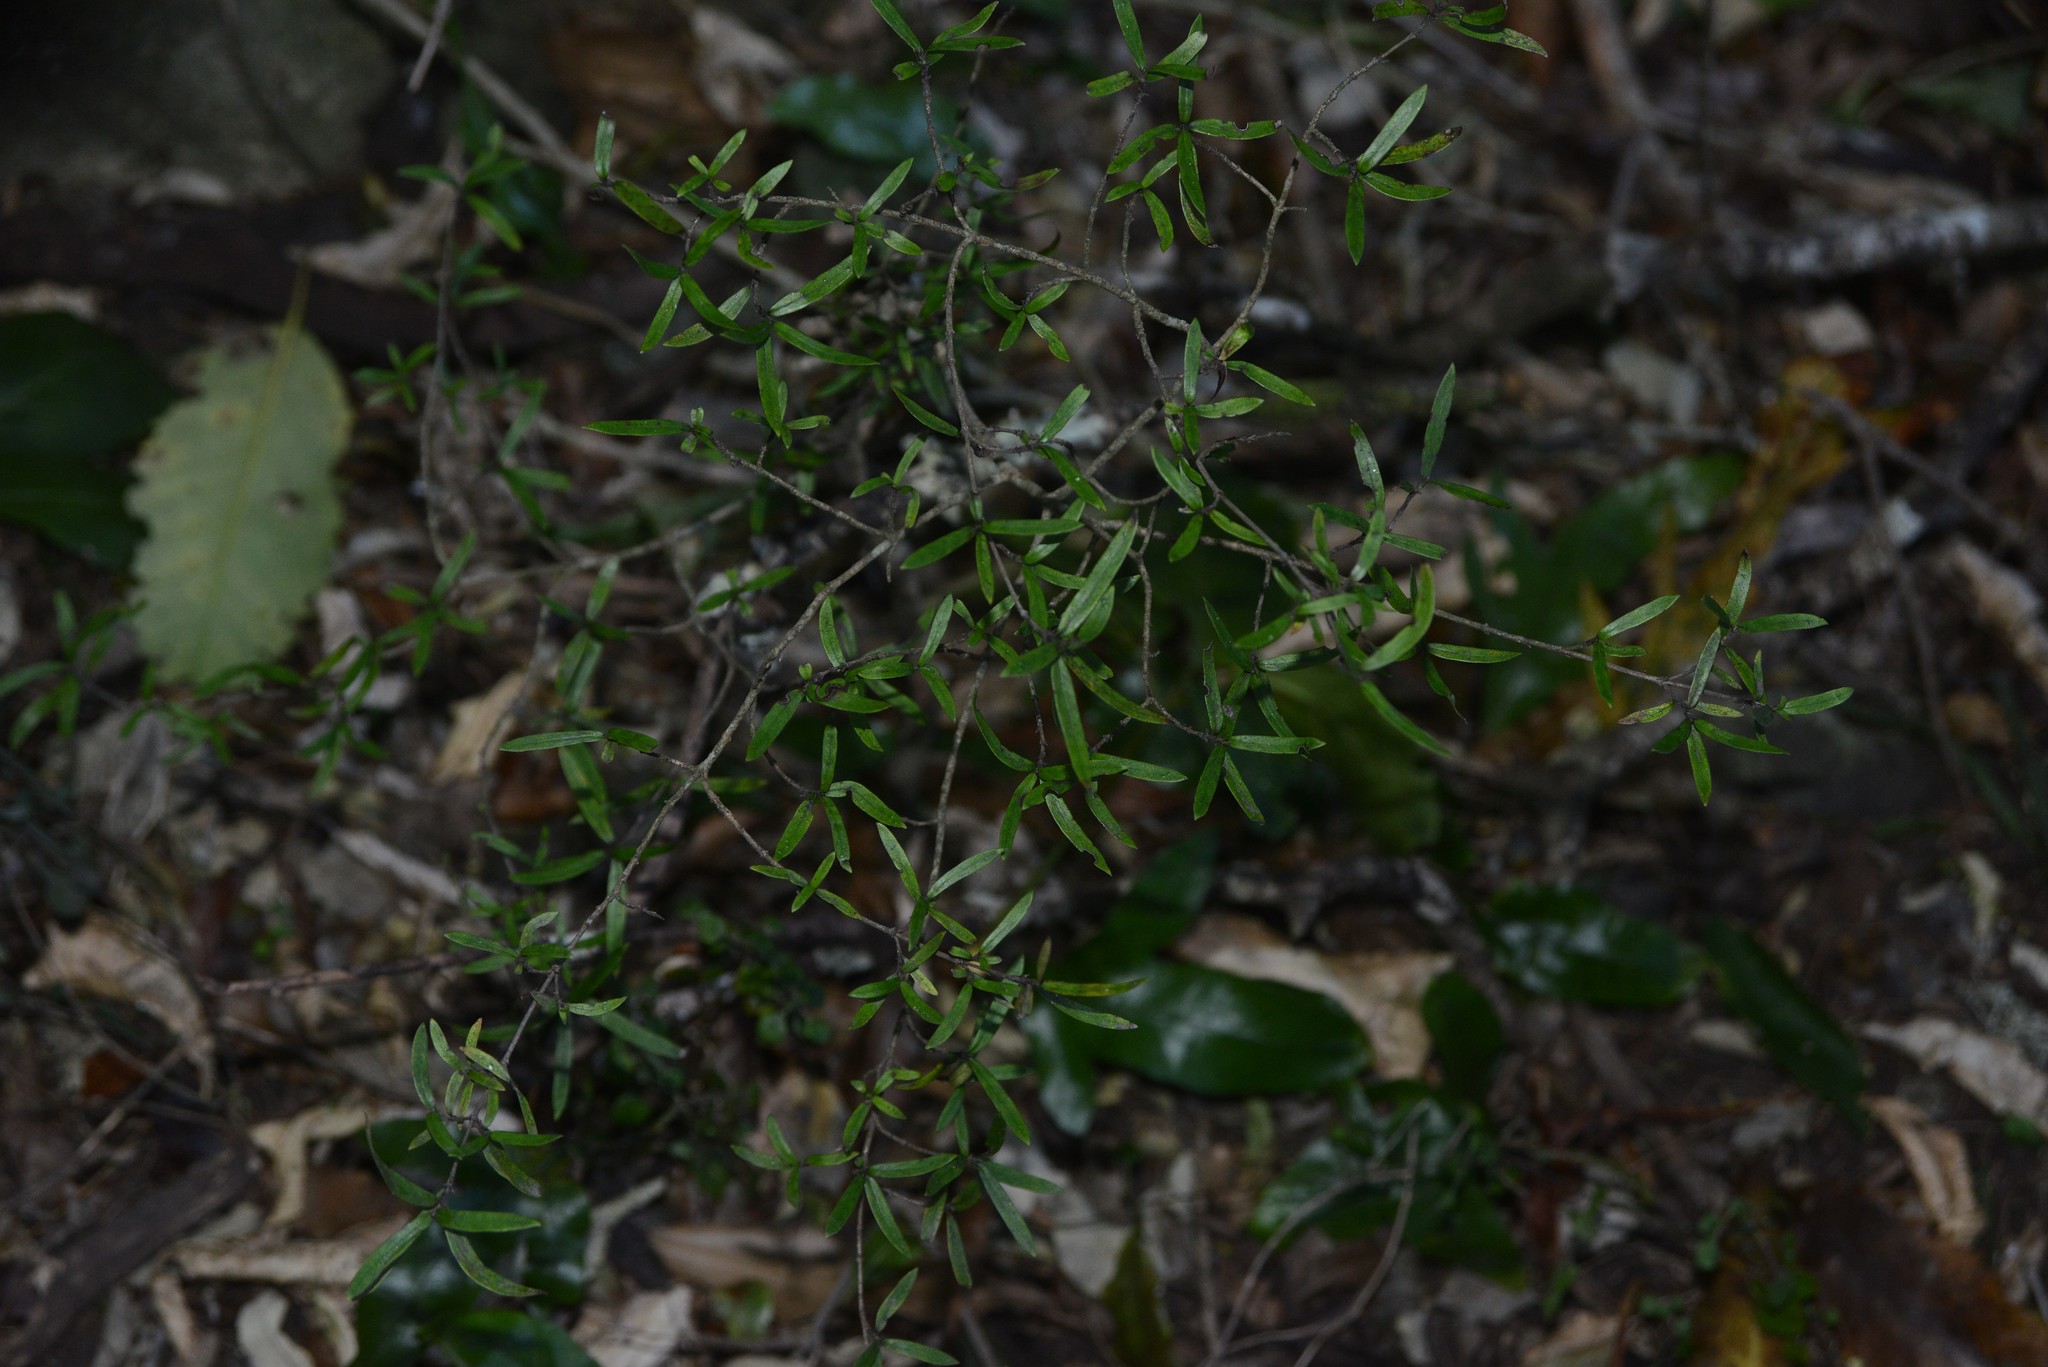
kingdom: Plantae
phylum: Tracheophyta
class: Magnoliopsida
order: Gentianales
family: Rubiaceae
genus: Coprosma
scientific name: Coprosma linariifolia
